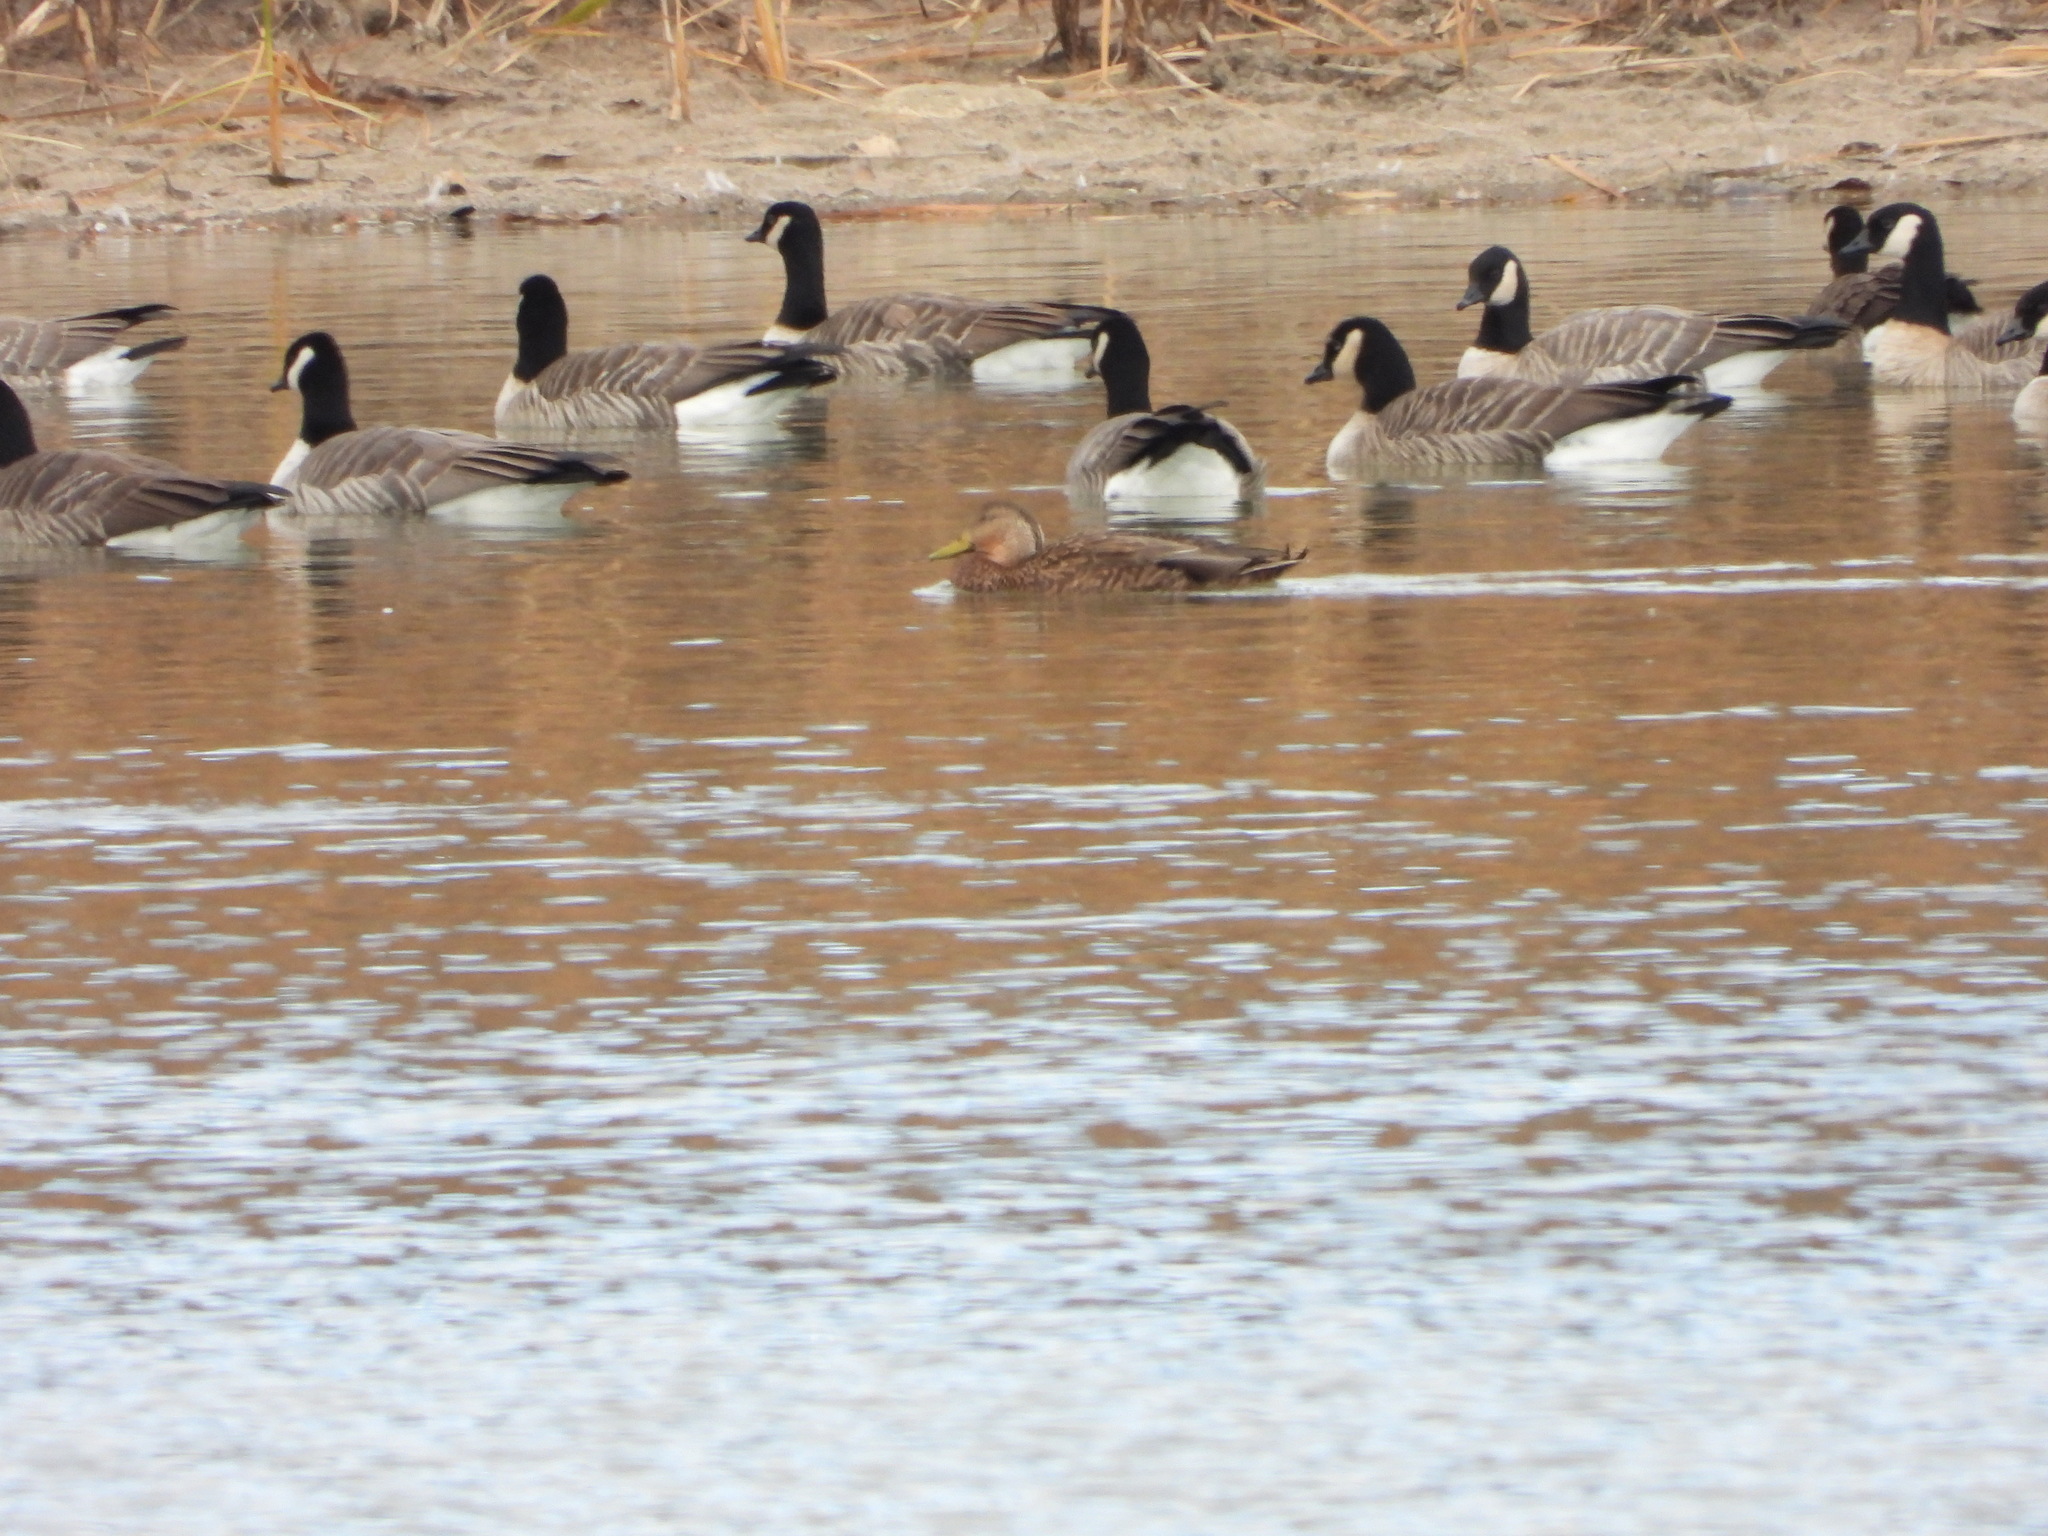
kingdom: Animalia
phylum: Chordata
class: Aves
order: Anseriformes
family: Anatidae
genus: Branta
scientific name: Branta hutchinsii
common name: Cackling goose
